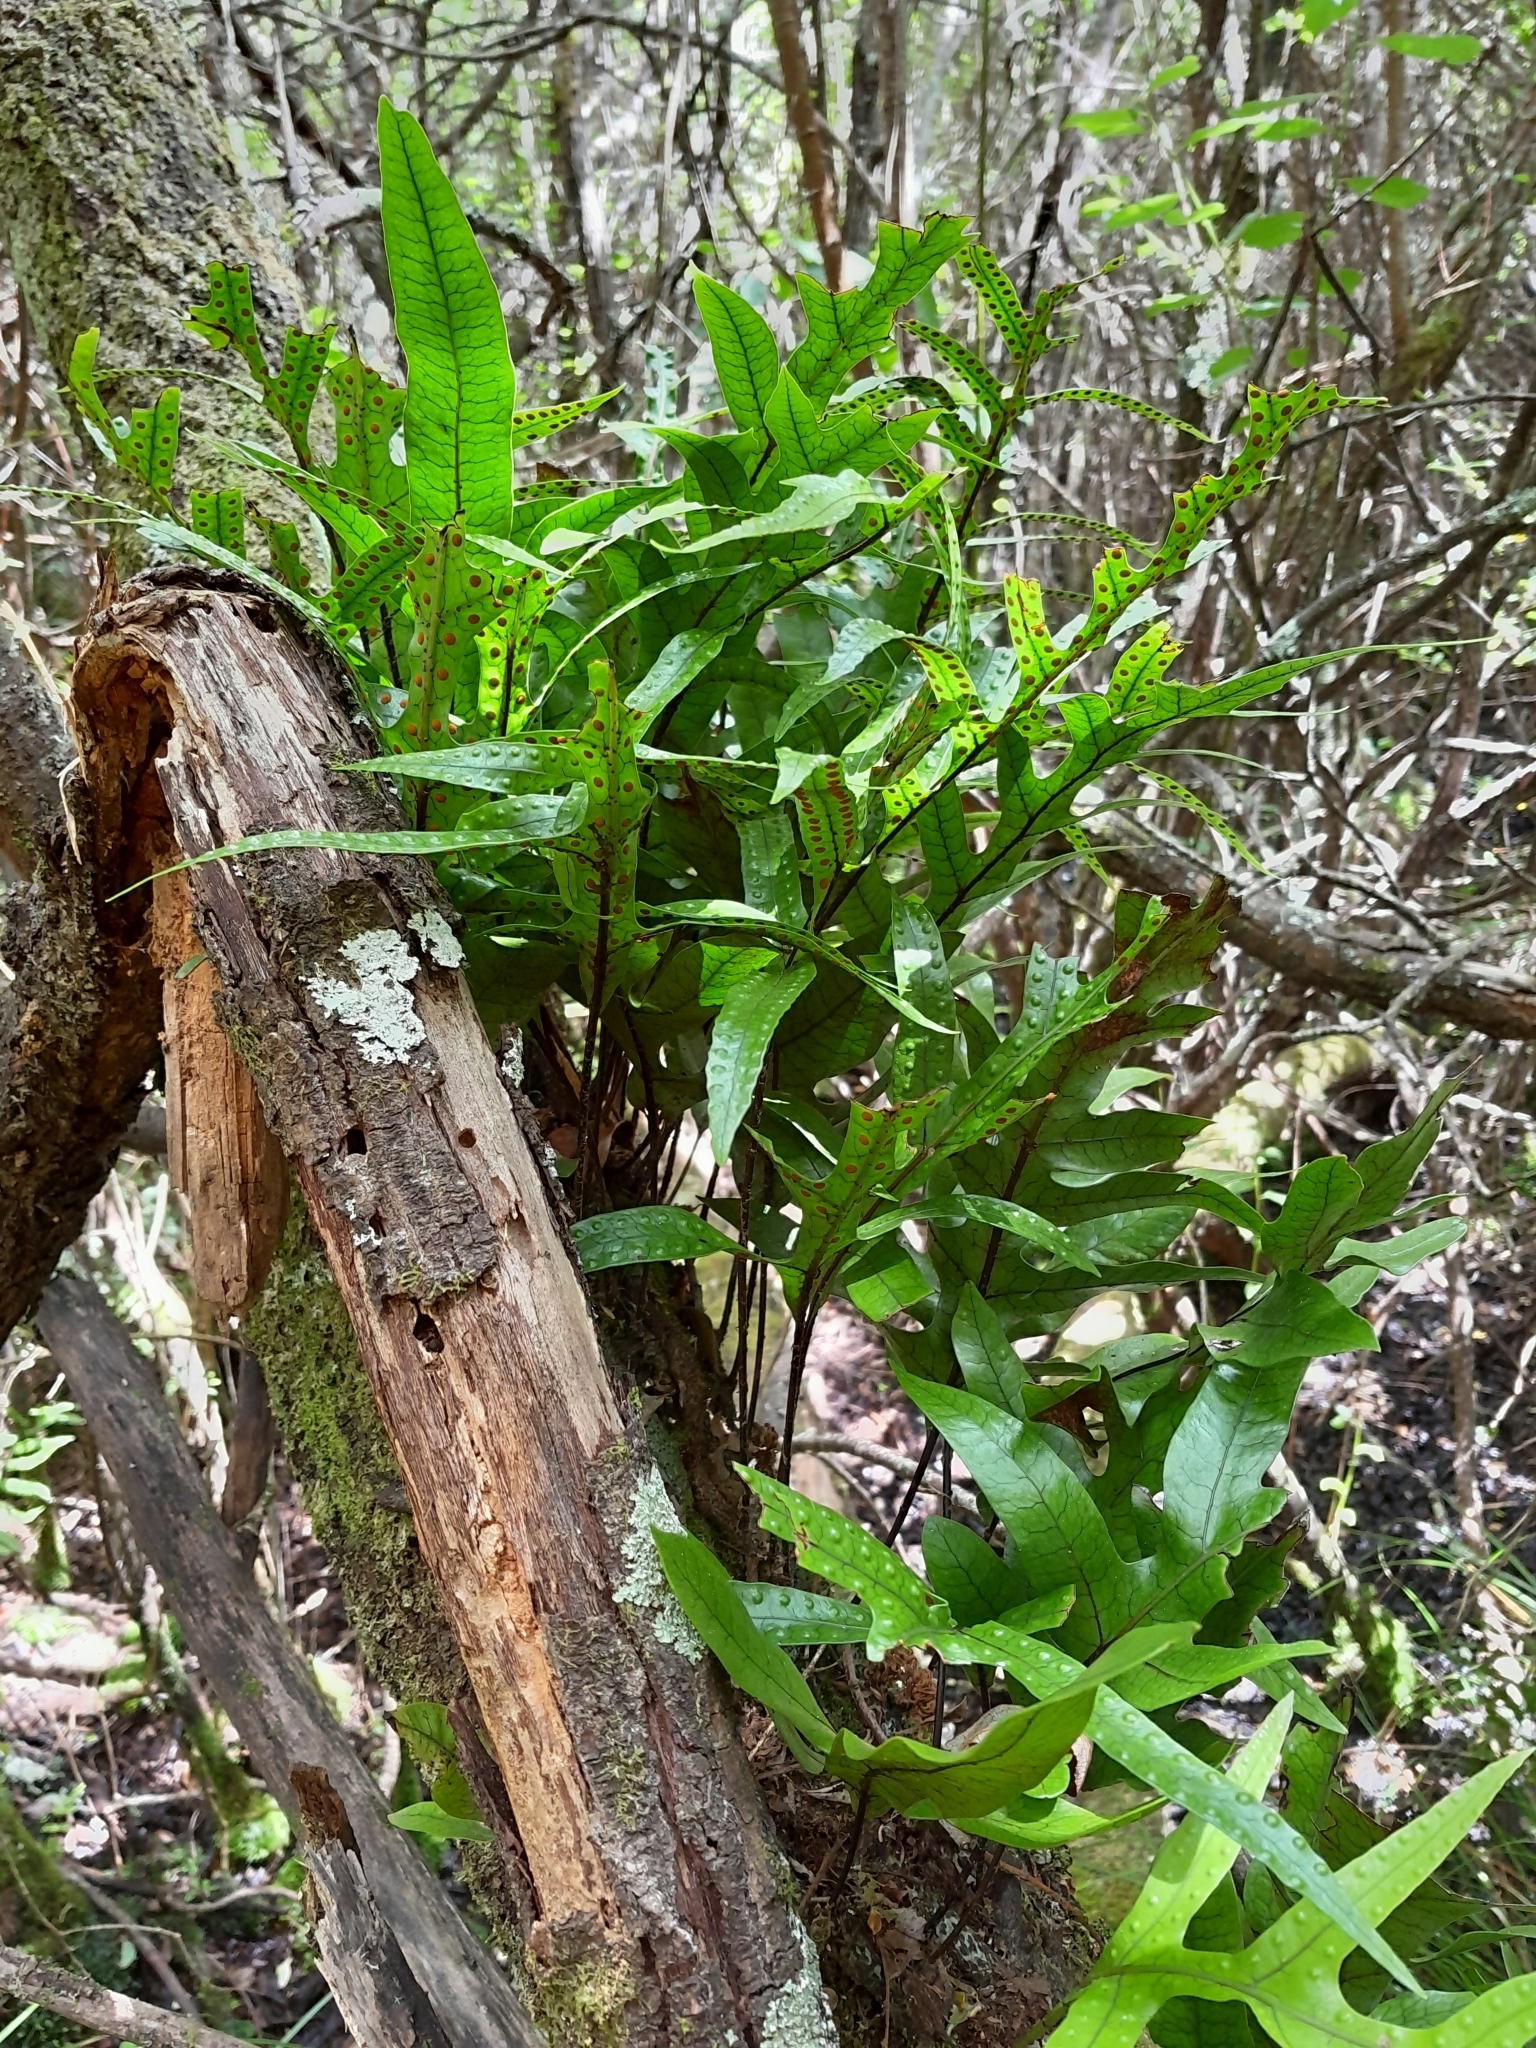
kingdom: Plantae
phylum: Tracheophyta
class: Polypodiopsida
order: Polypodiales
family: Polypodiaceae
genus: Lecanopteris
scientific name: Lecanopteris pustulata
